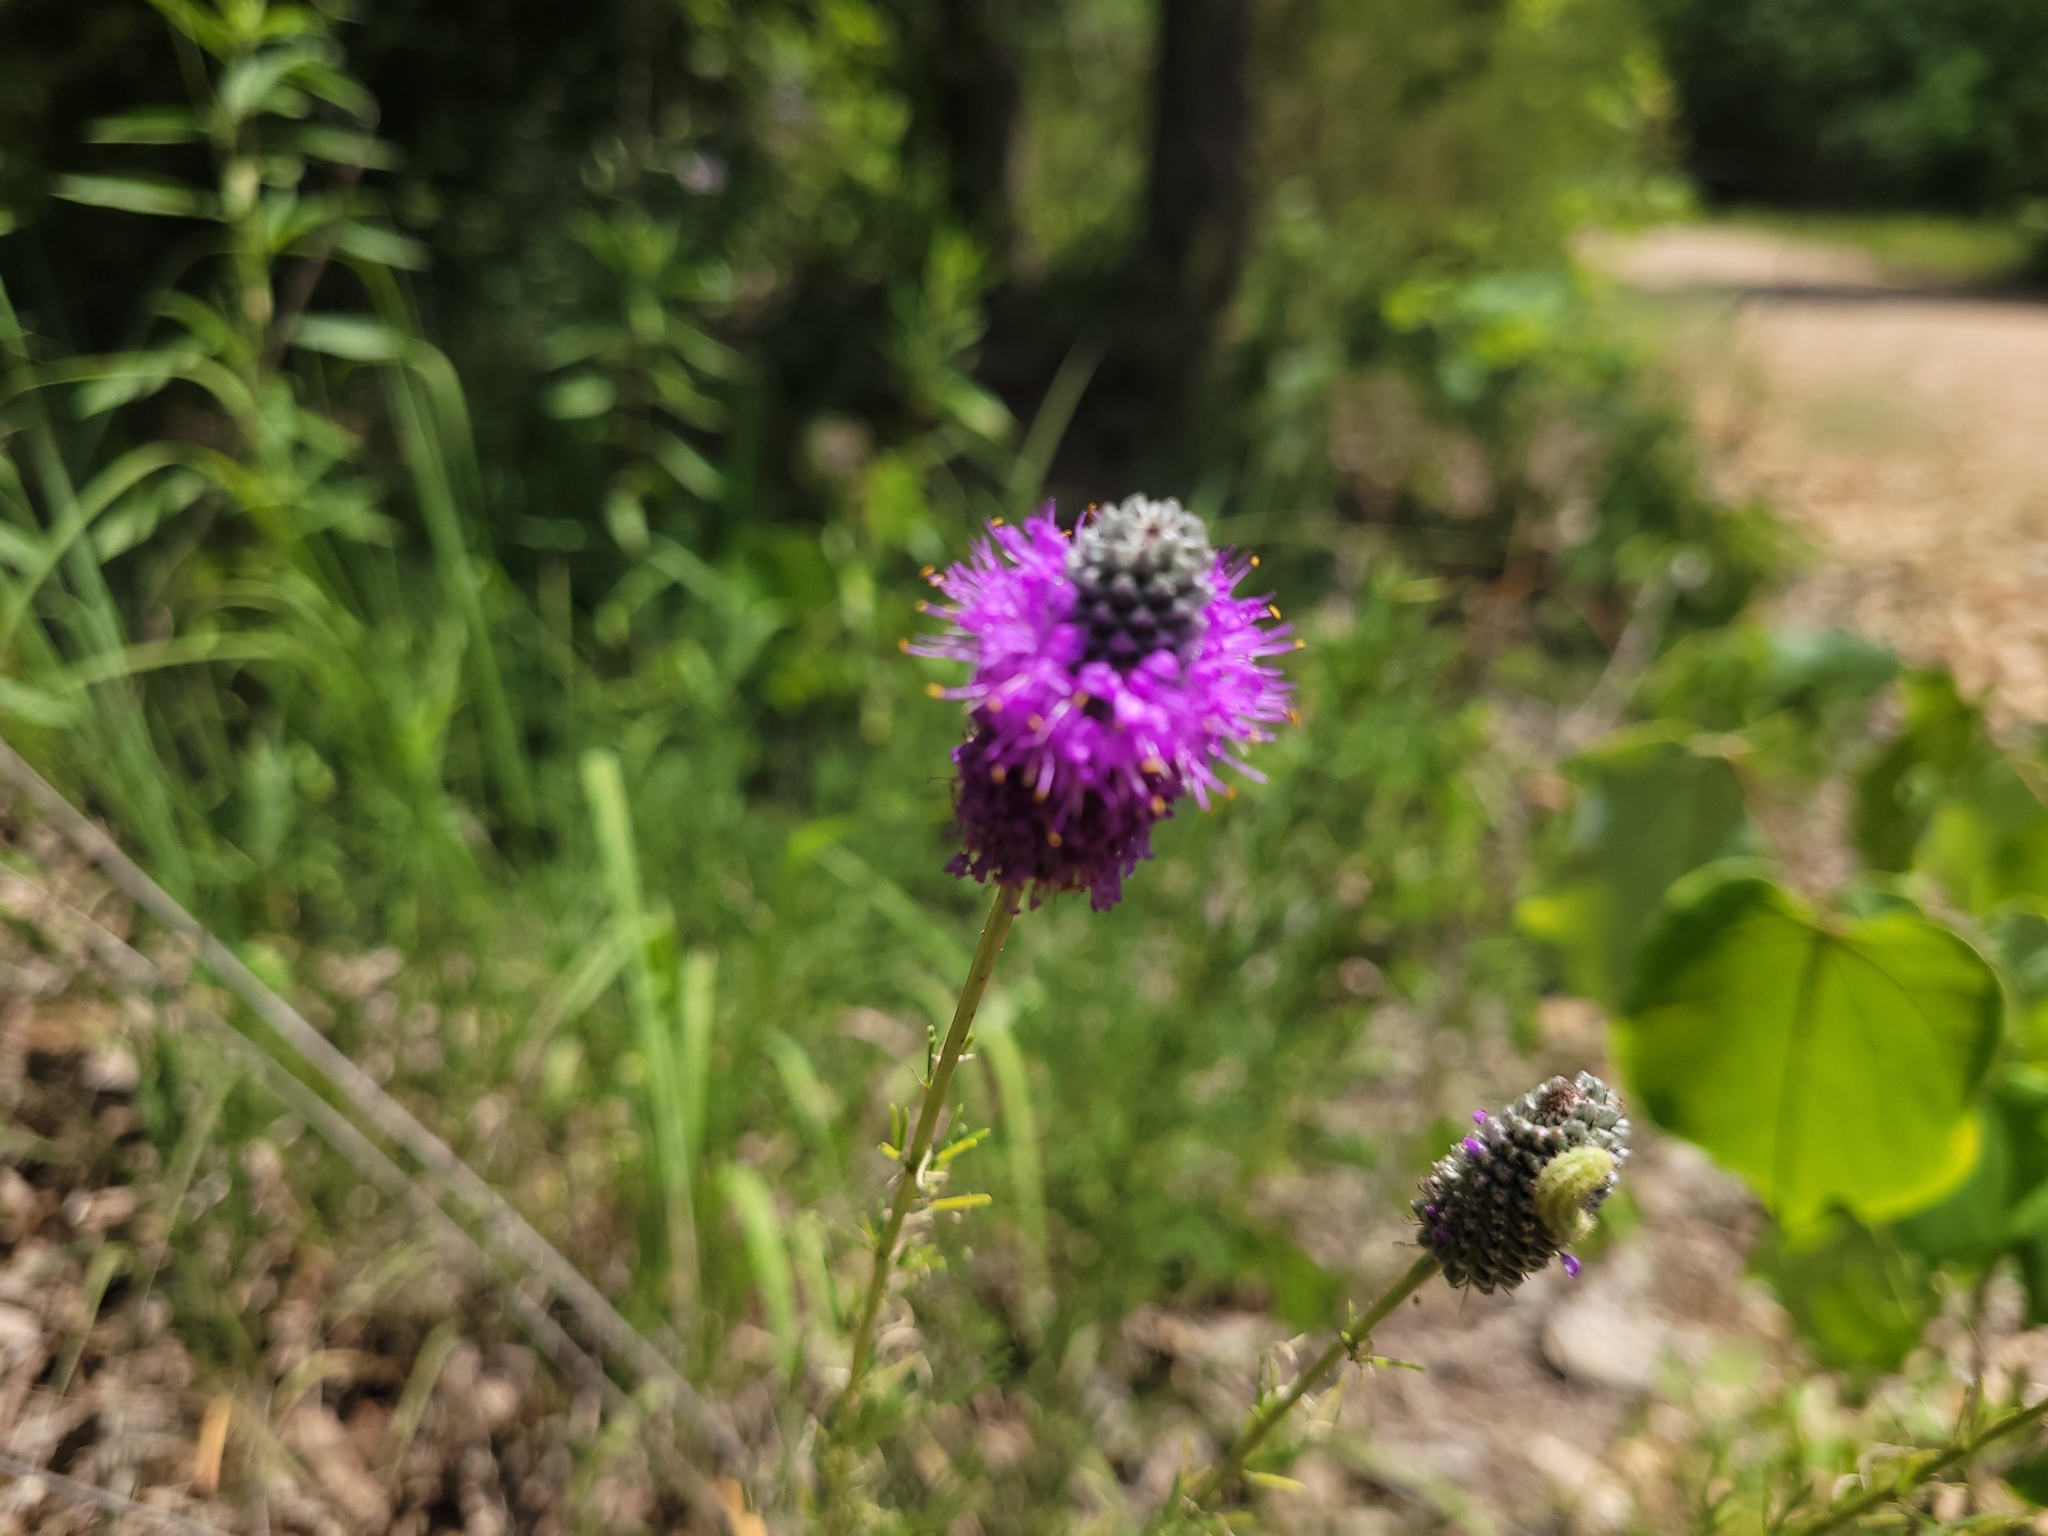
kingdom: Plantae
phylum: Tracheophyta
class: Magnoliopsida
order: Fabales
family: Fabaceae
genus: Dalea
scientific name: Dalea purpurea
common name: Purple prairie-clover
